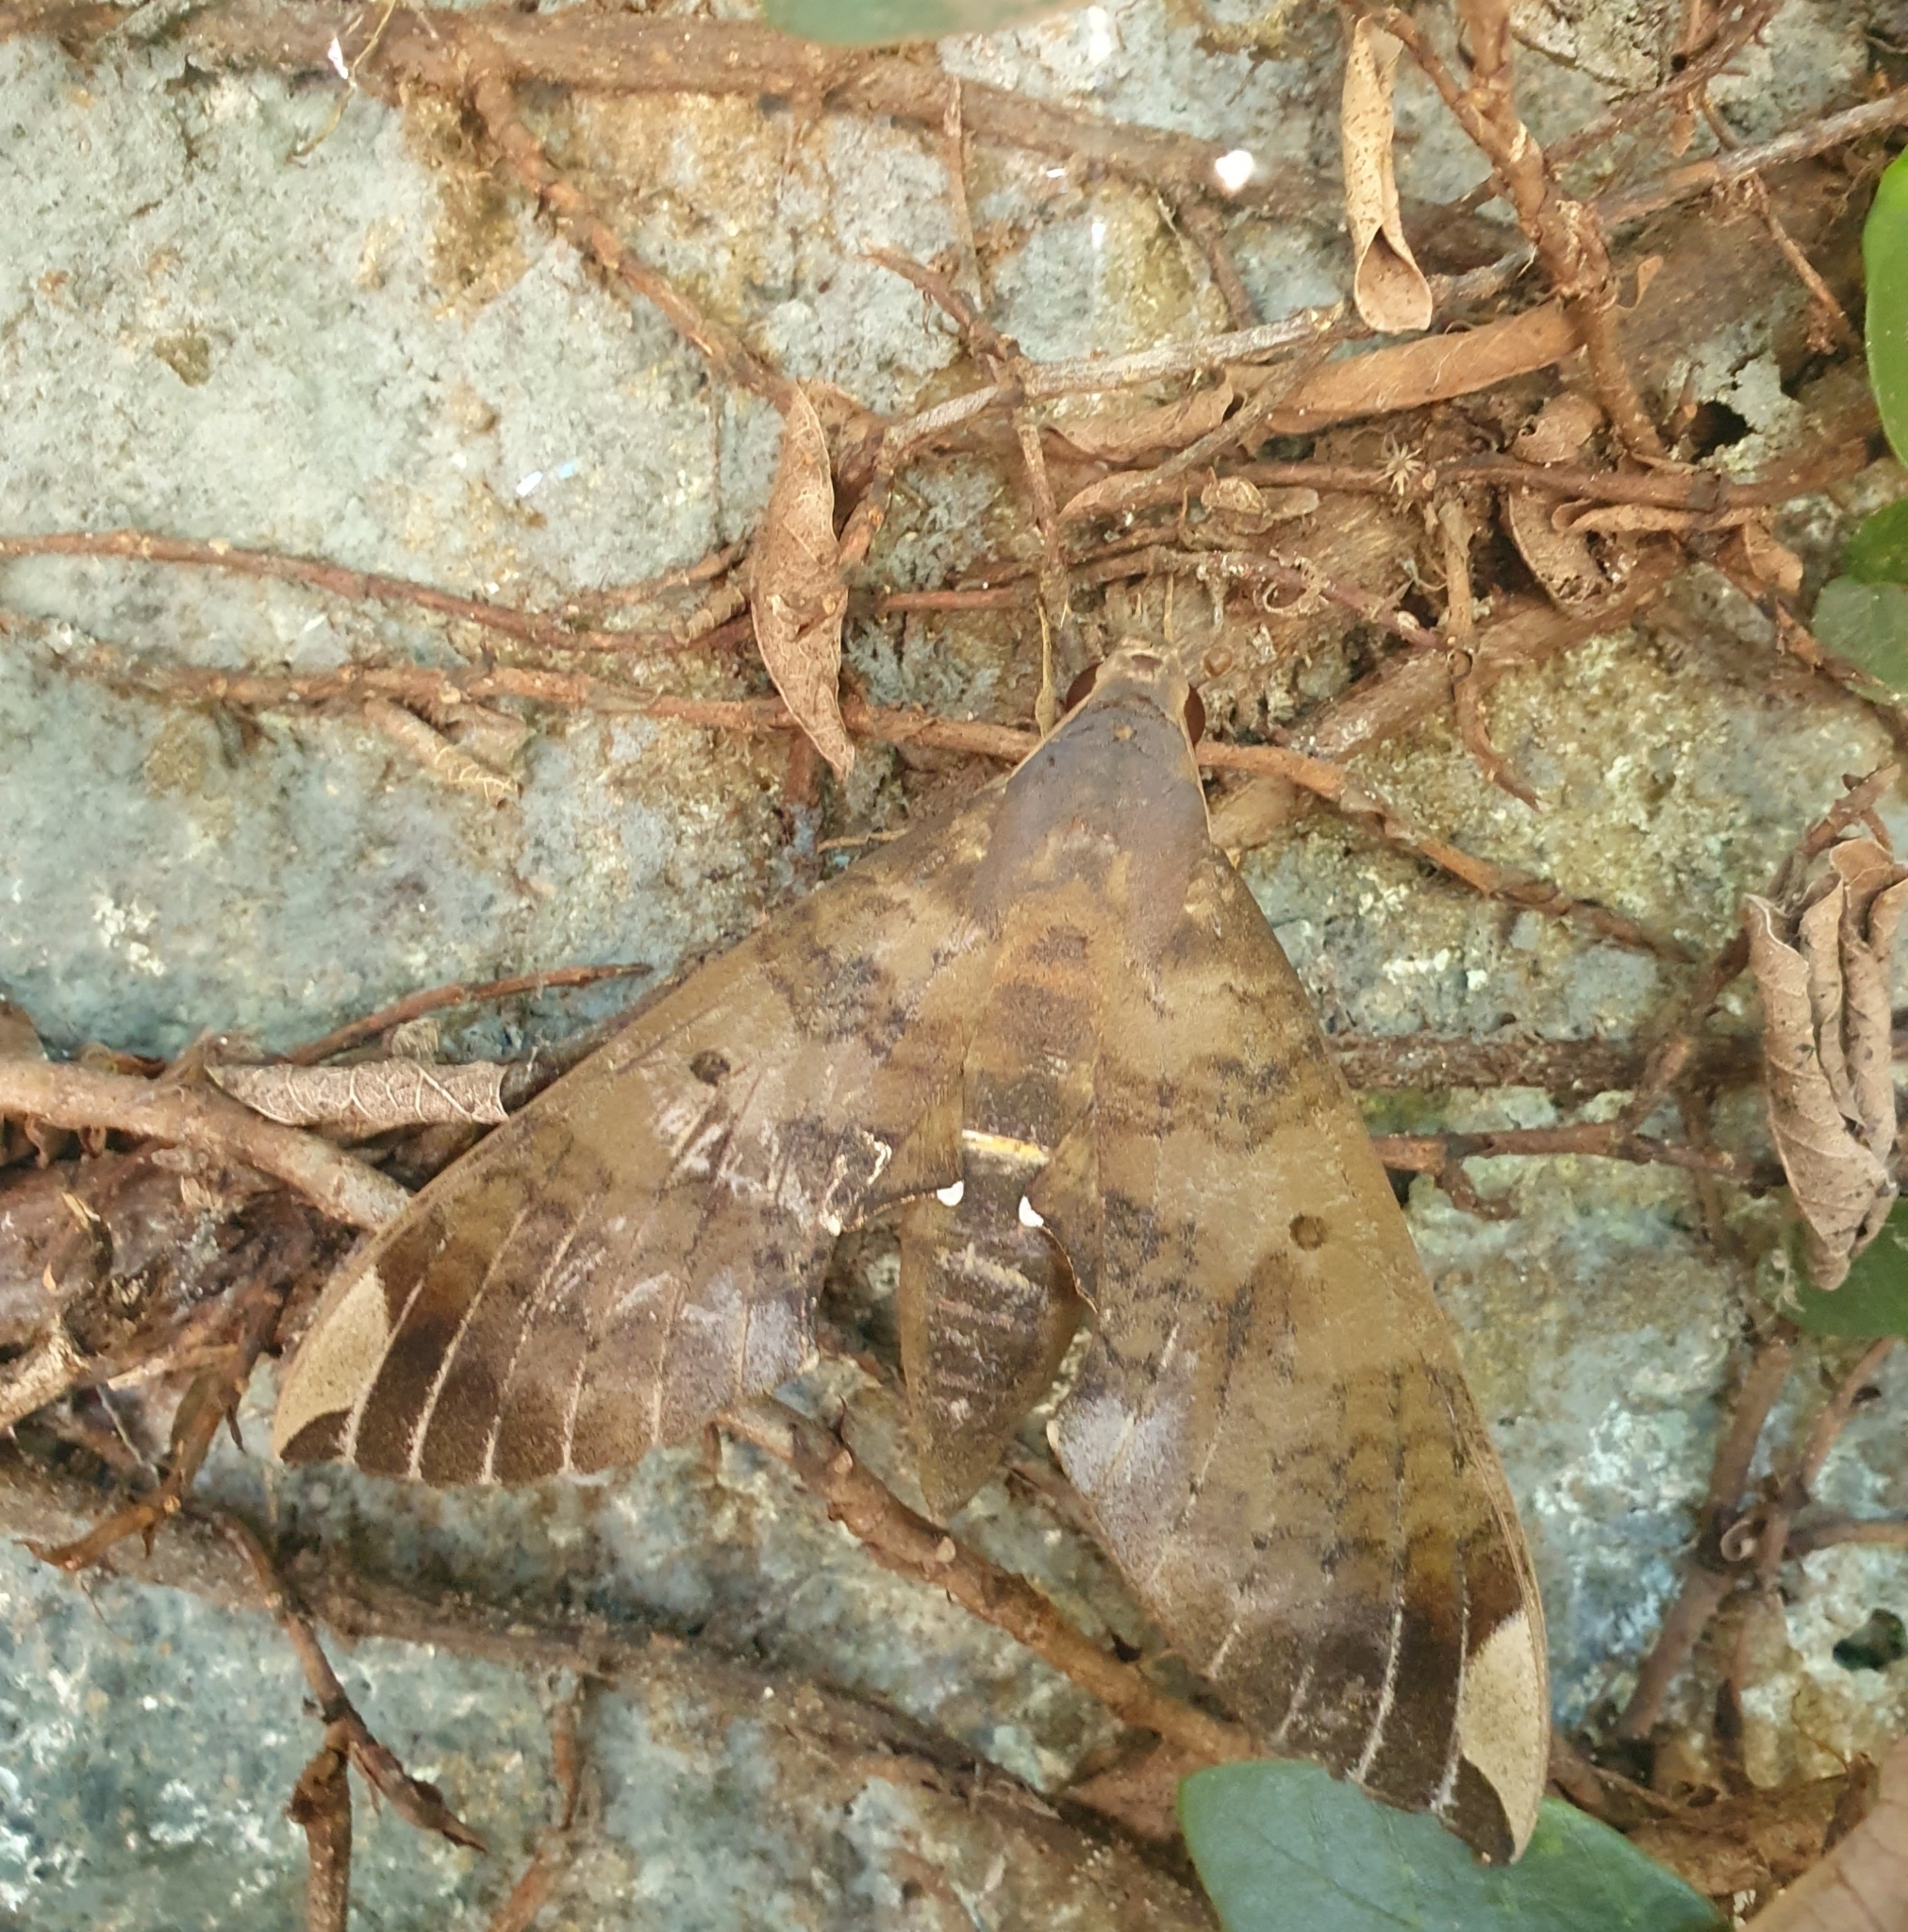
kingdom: Animalia
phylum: Arthropoda
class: Insecta
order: Lepidoptera
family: Sphingidae
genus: Pachylia
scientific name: Pachylia ficus
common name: Fig sphinx
